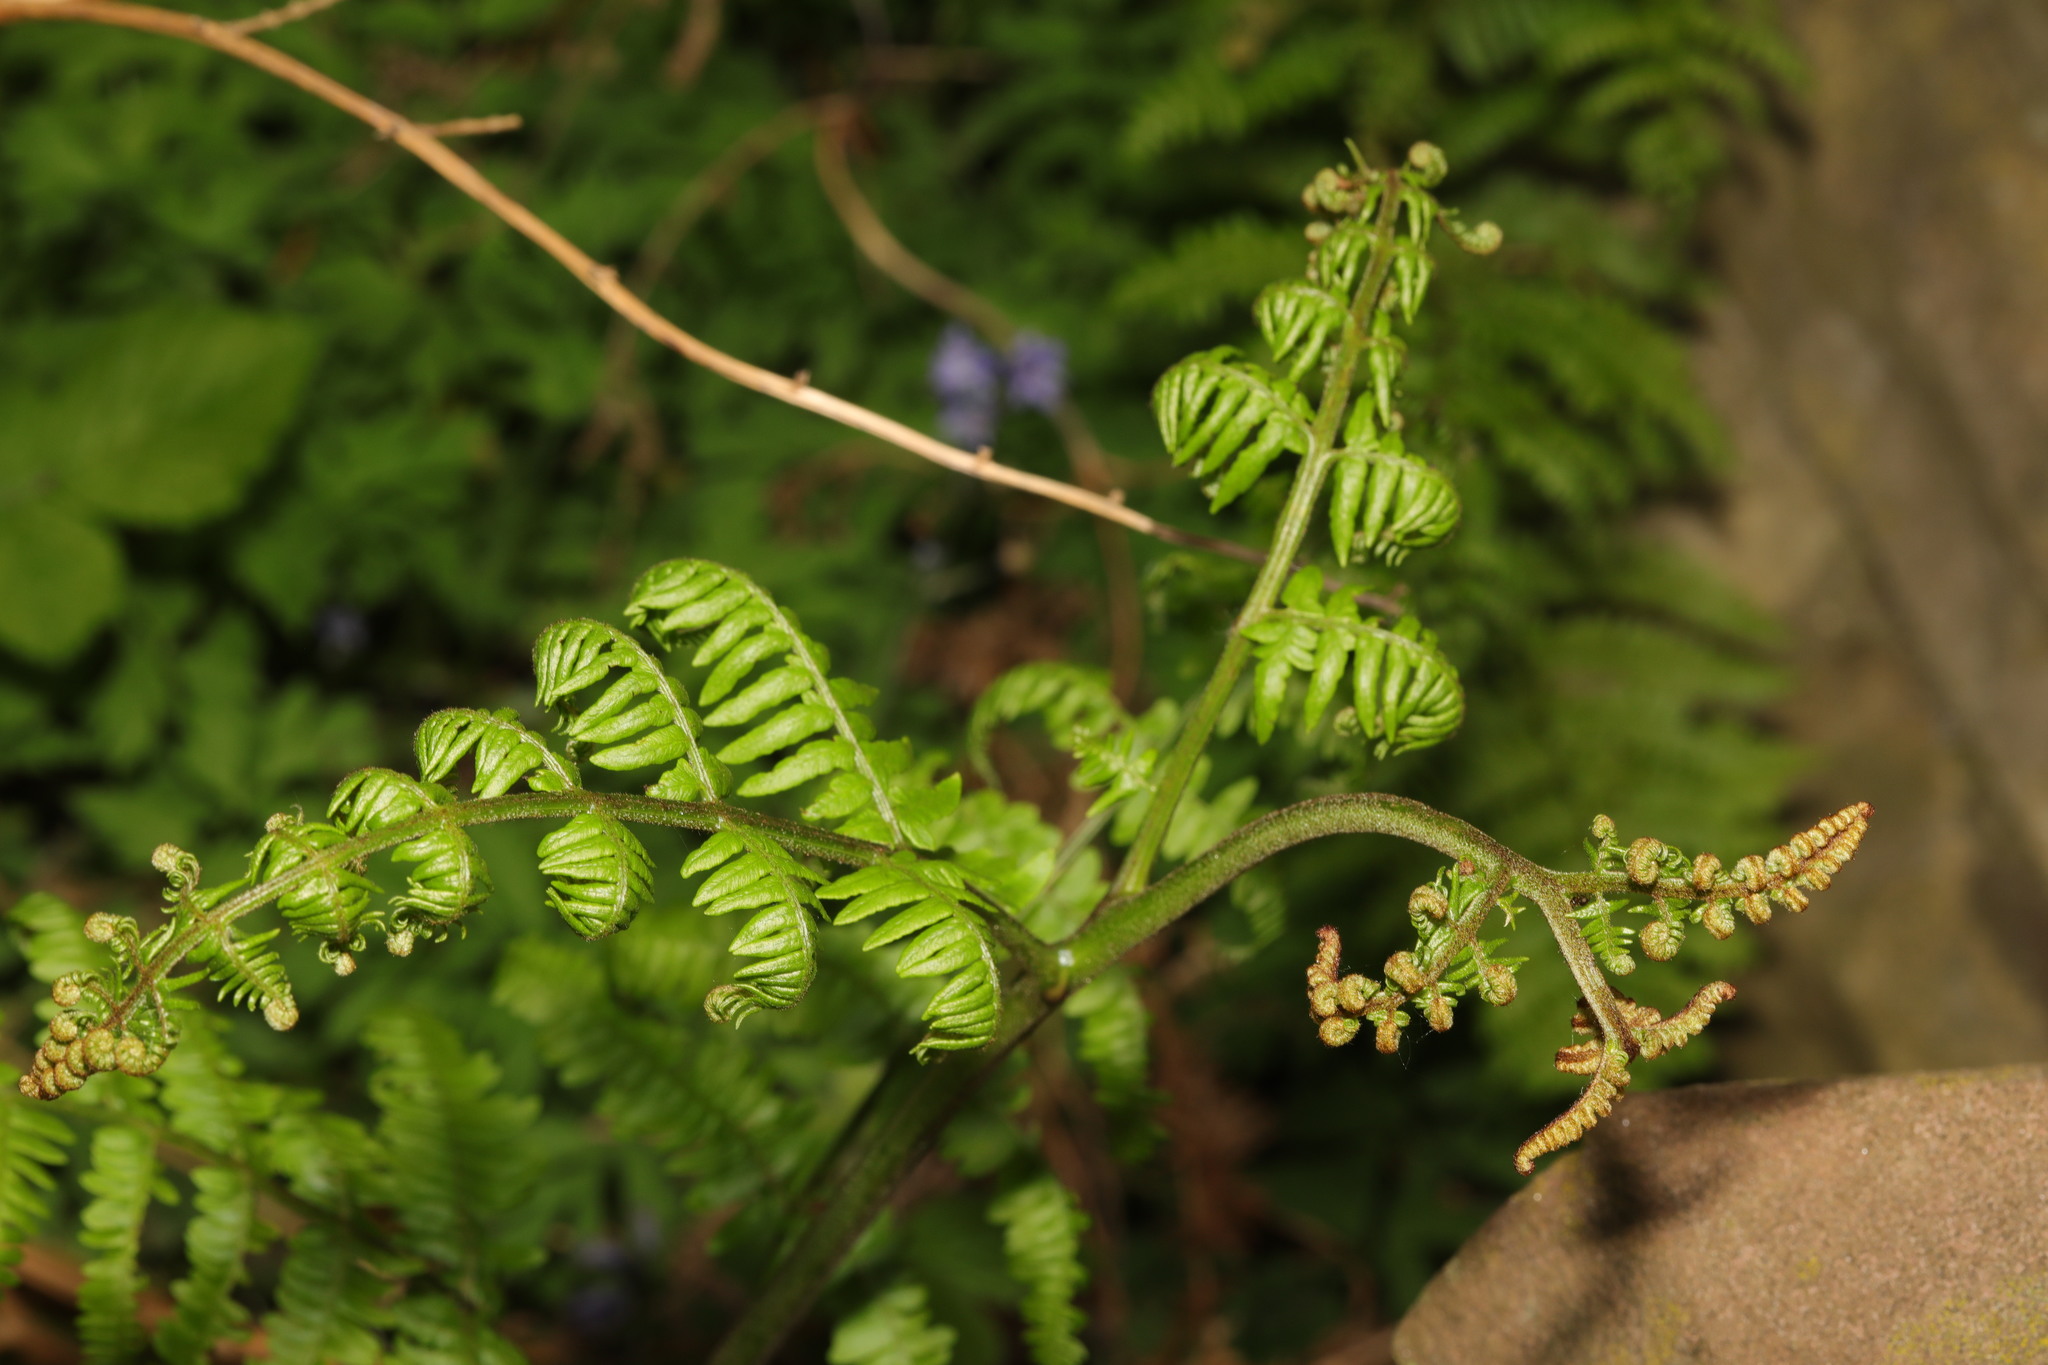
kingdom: Plantae
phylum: Tracheophyta
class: Polypodiopsida
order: Polypodiales
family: Dennstaedtiaceae
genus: Pteridium
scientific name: Pteridium aquilinum
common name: Bracken
